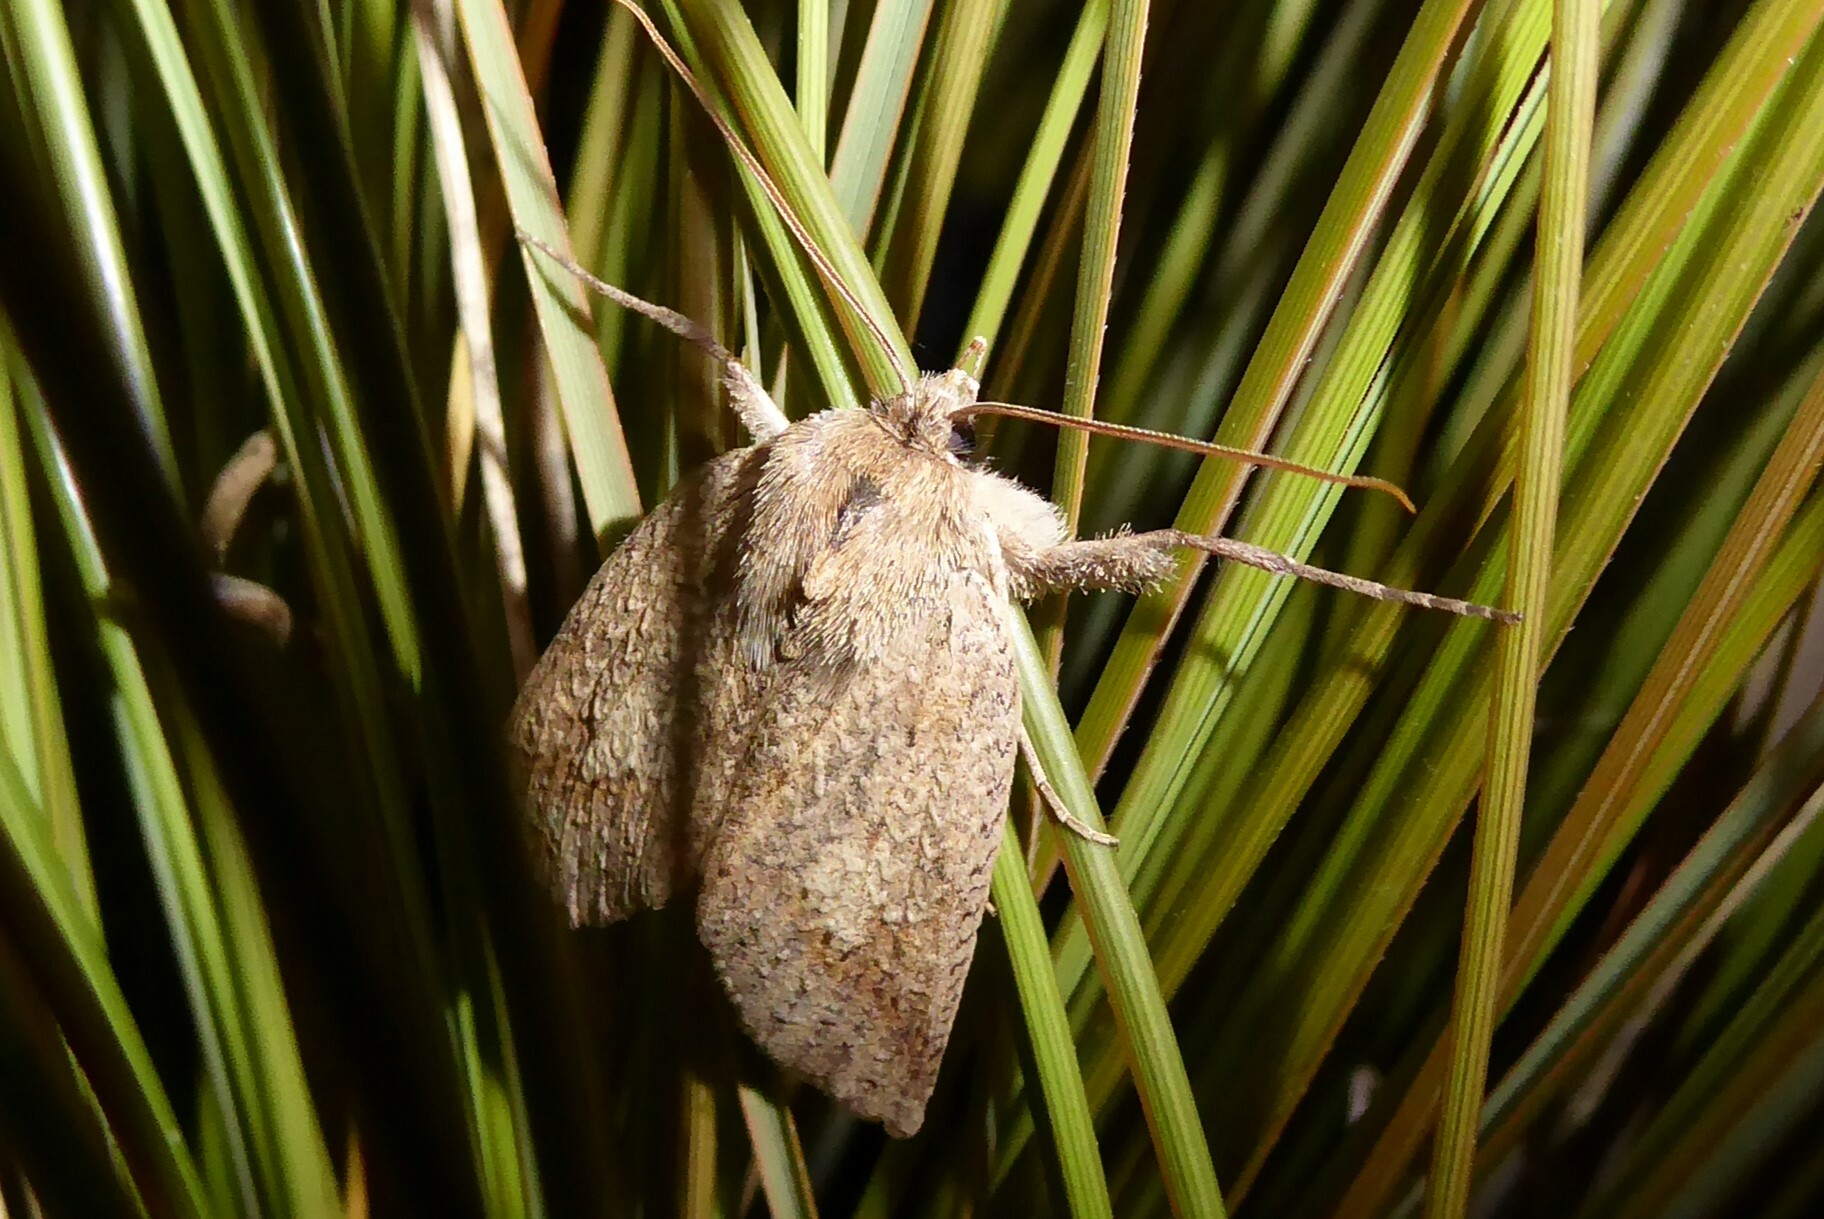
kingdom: Animalia
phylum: Arthropoda
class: Insecta
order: Lepidoptera
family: Geometridae
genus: Declana
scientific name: Declana leptomera
